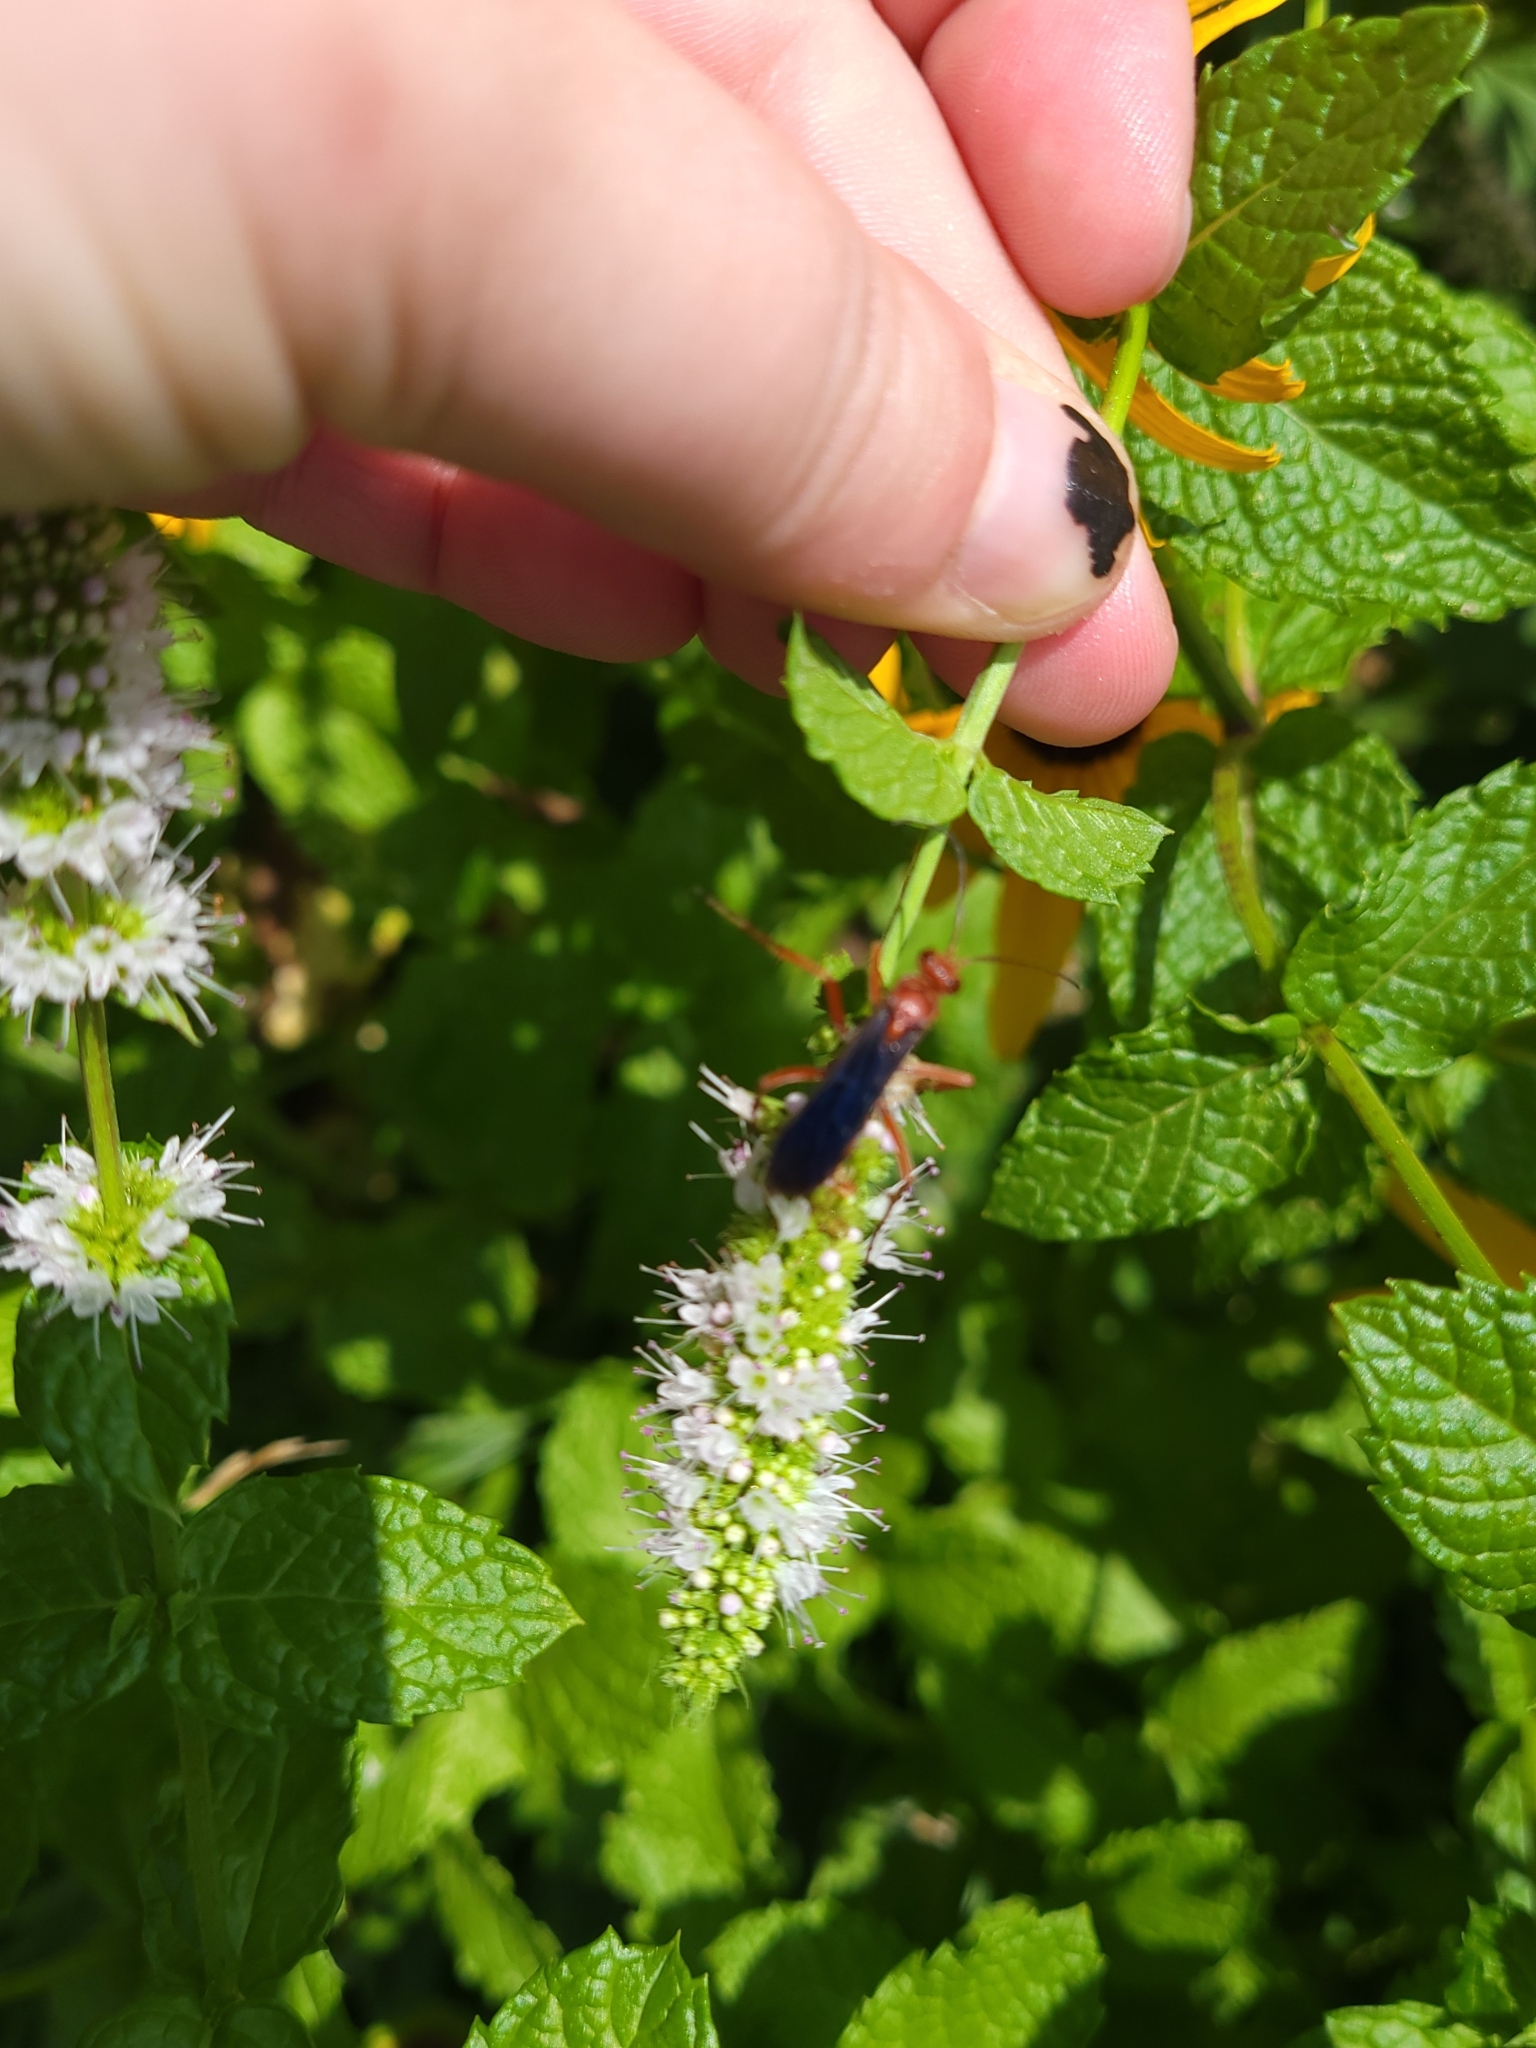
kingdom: Animalia
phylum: Arthropoda
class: Insecta
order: Hymenoptera
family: Pompilidae
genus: Tachypompilus
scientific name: Tachypompilus ferrugineus
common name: Rusty spider wasp
